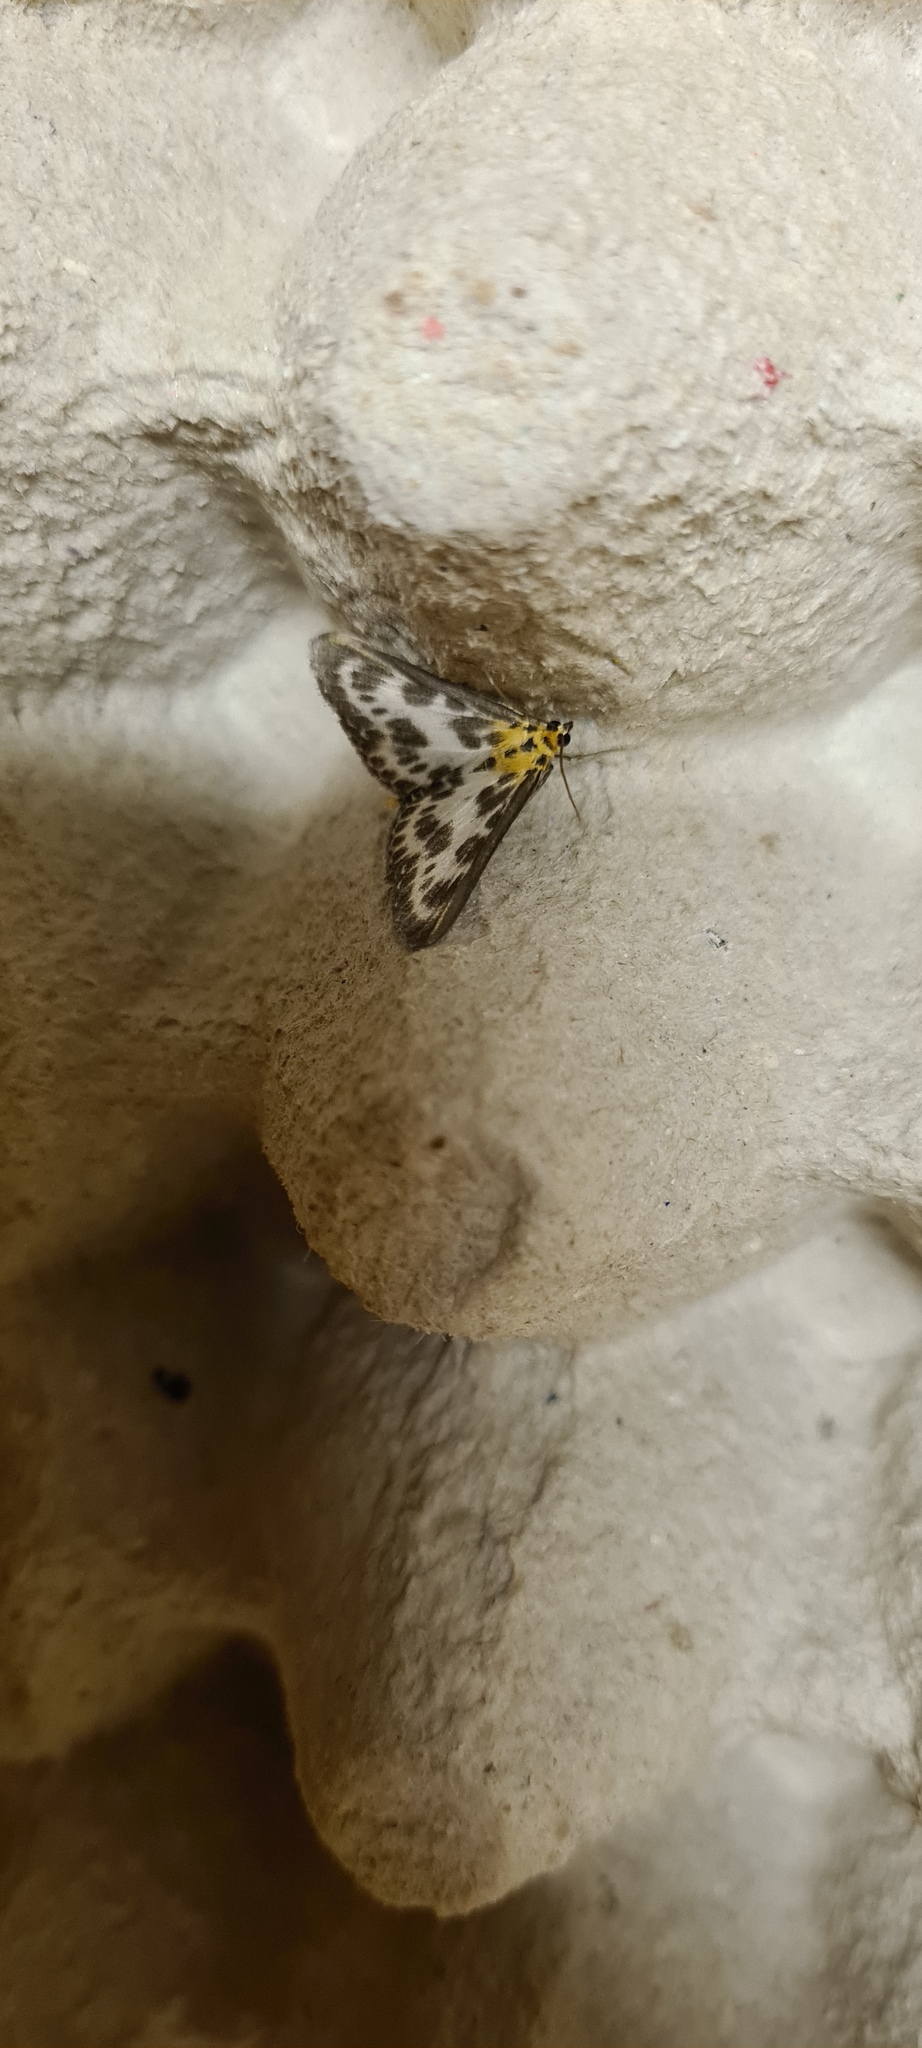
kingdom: Animalia
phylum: Arthropoda
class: Insecta
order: Lepidoptera
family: Crambidae
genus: Anania
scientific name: Anania hortulata
